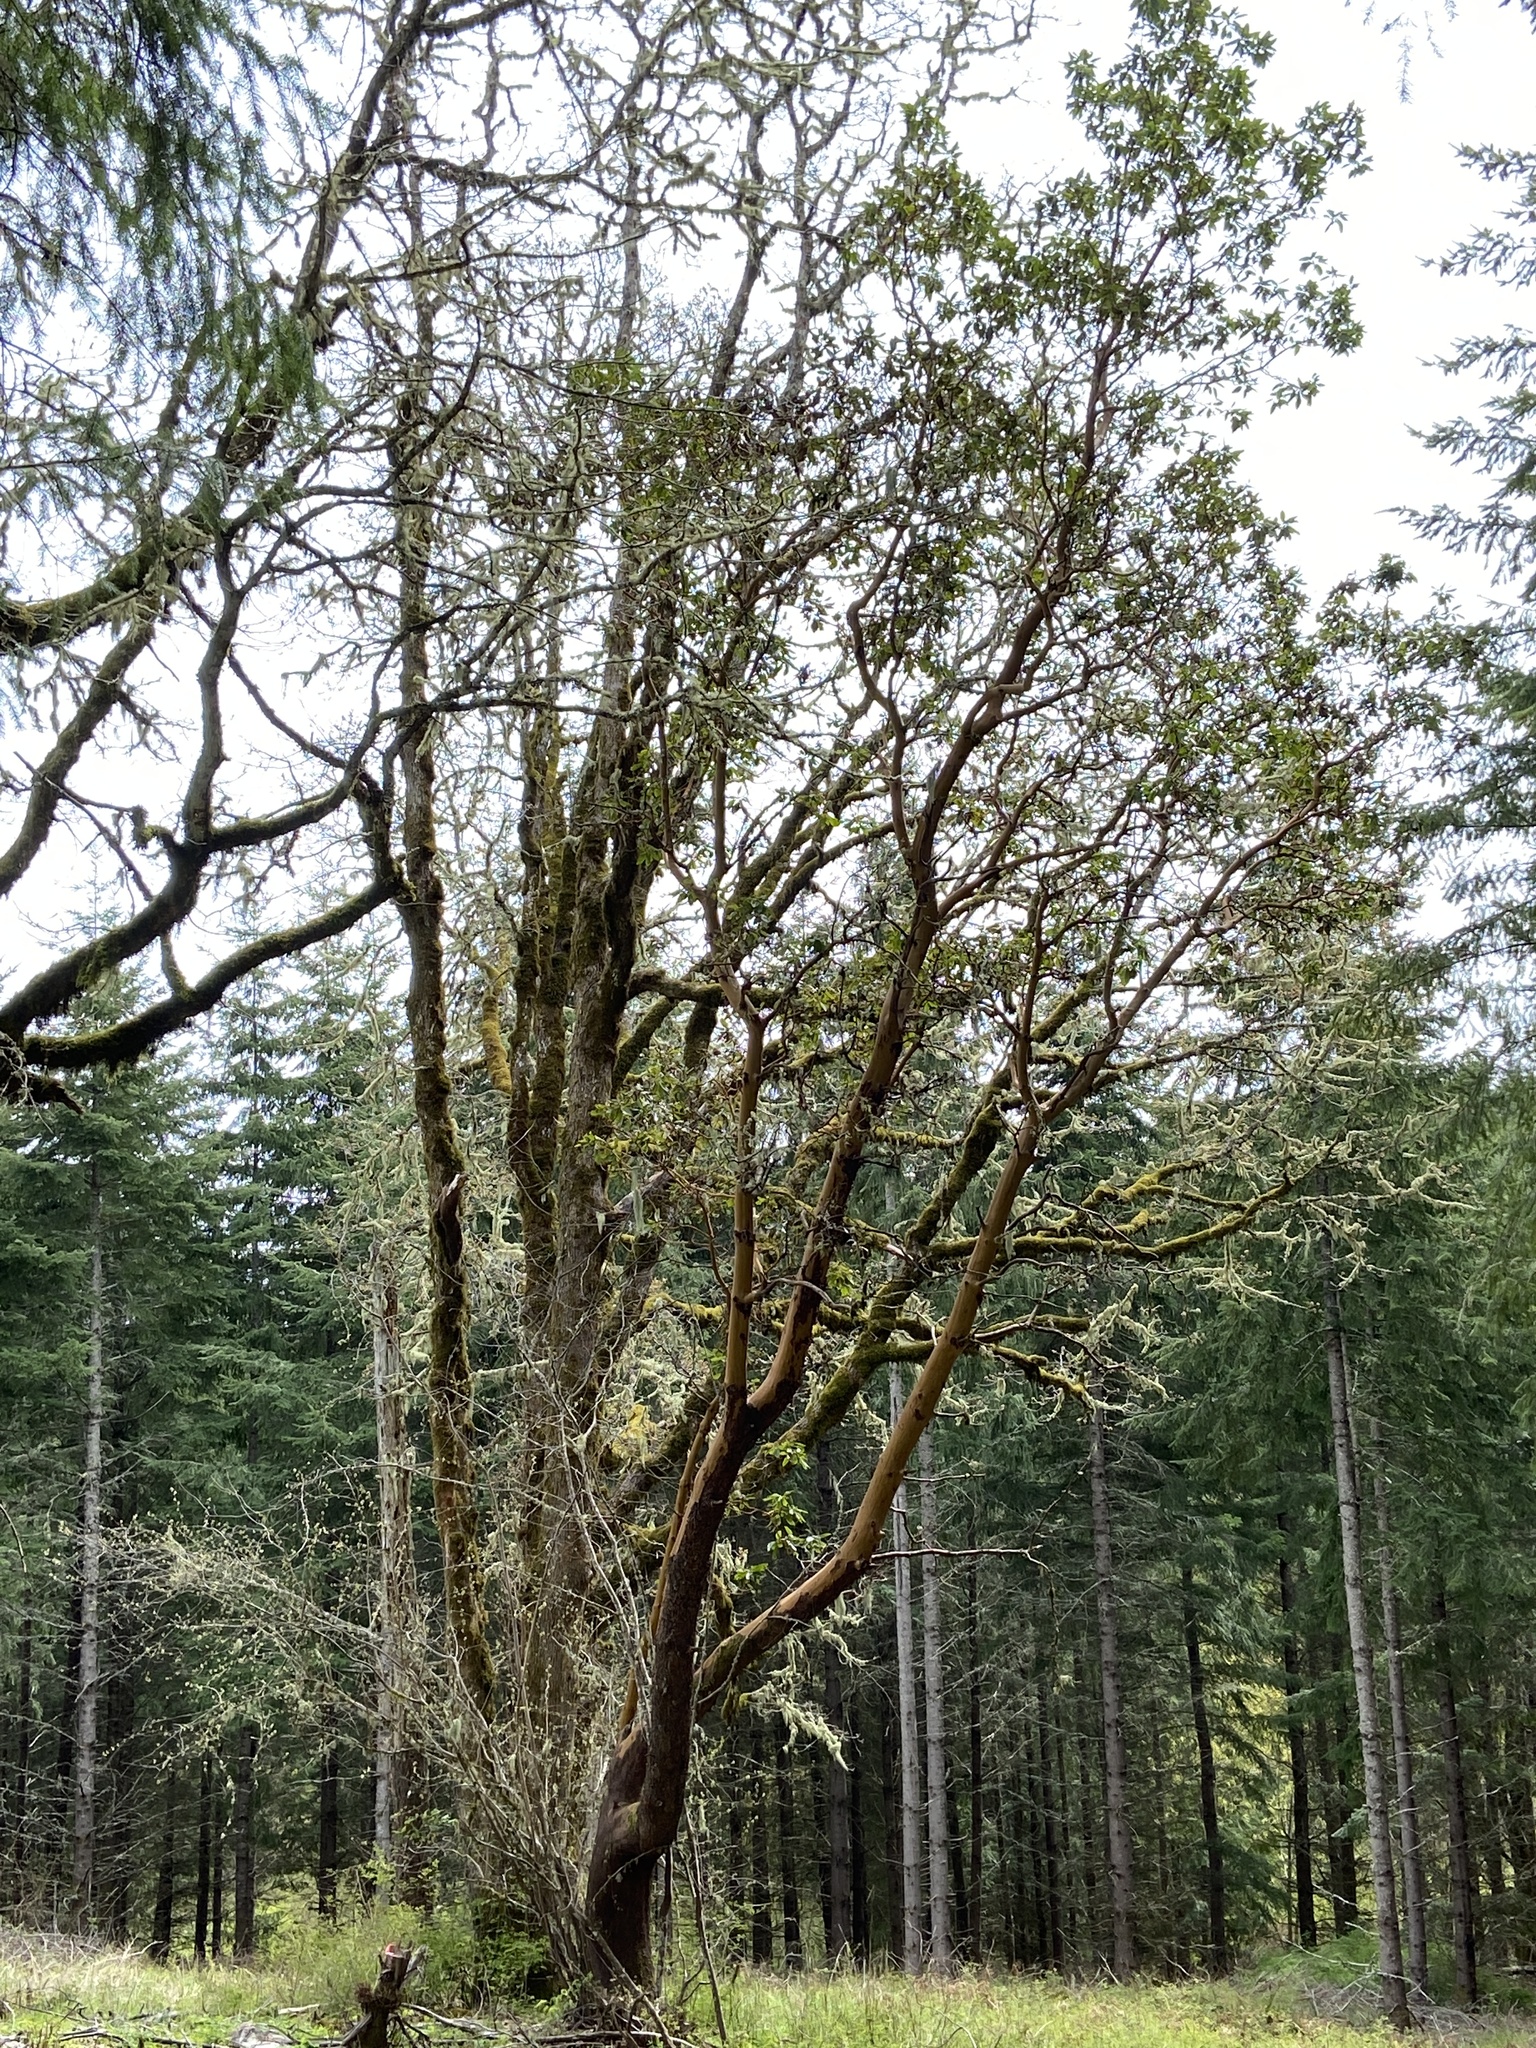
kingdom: Plantae
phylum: Tracheophyta
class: Magnoliopsida
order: Ericales
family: Ericaceae
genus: Arbutus
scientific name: Arbutus menziesii
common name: Pacific madrone
